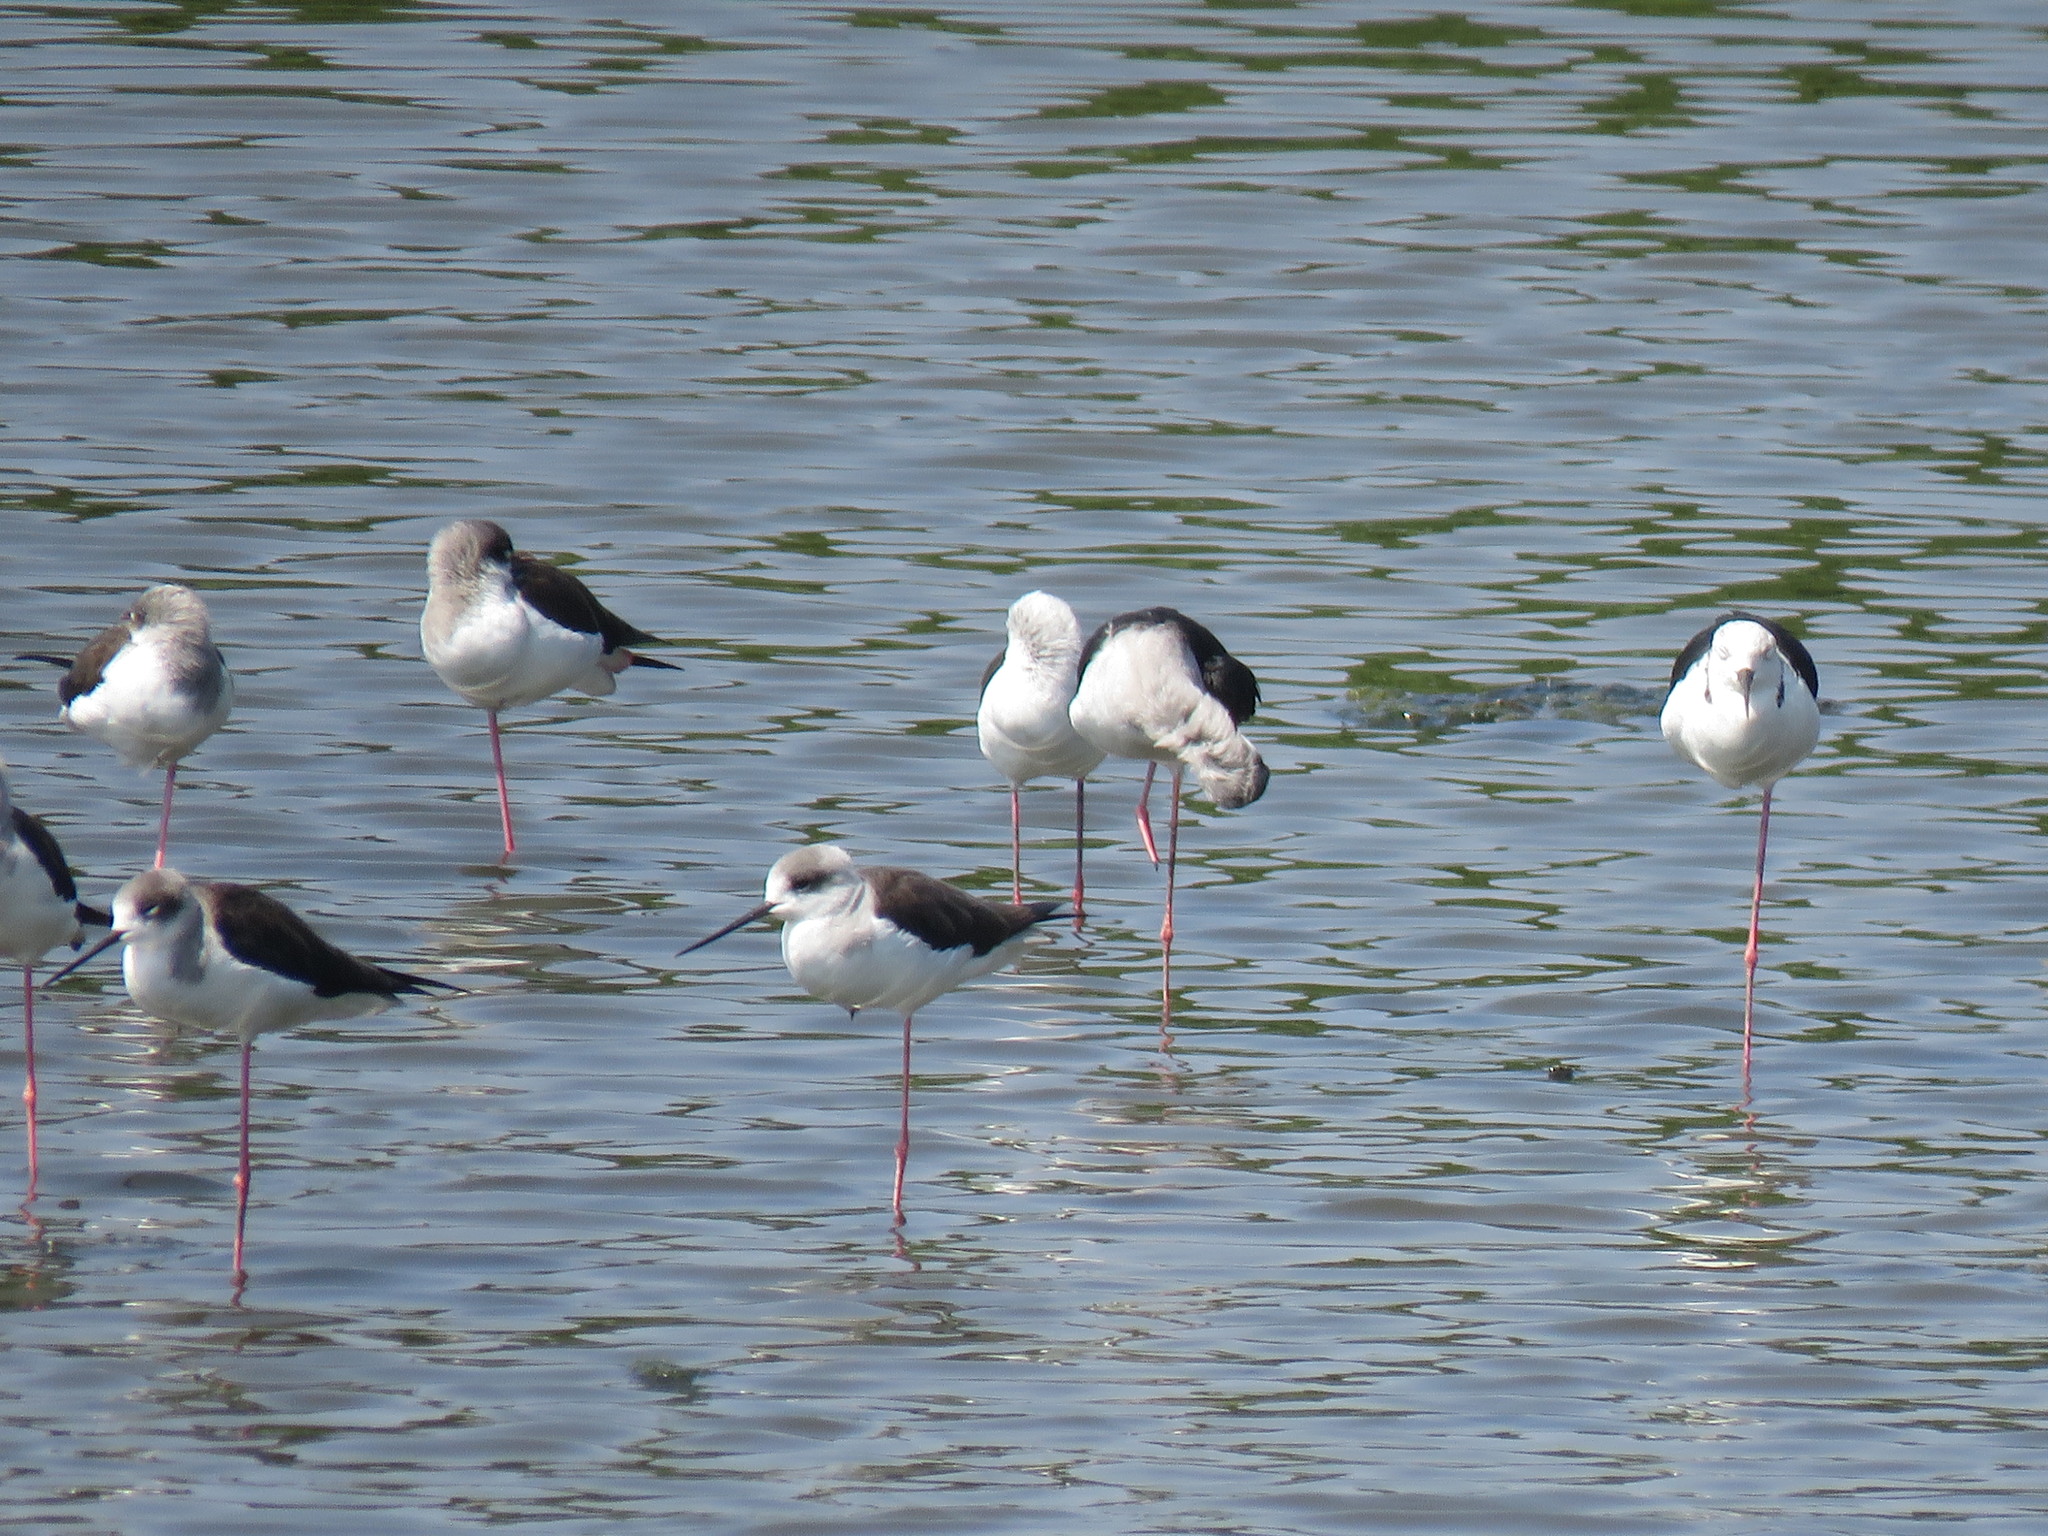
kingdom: Animalia
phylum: Chordata
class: Aves
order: Charadriiformes
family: Recurvirostridae
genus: Himantopus
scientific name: Himantopus himantopus
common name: Black-winged stilt
